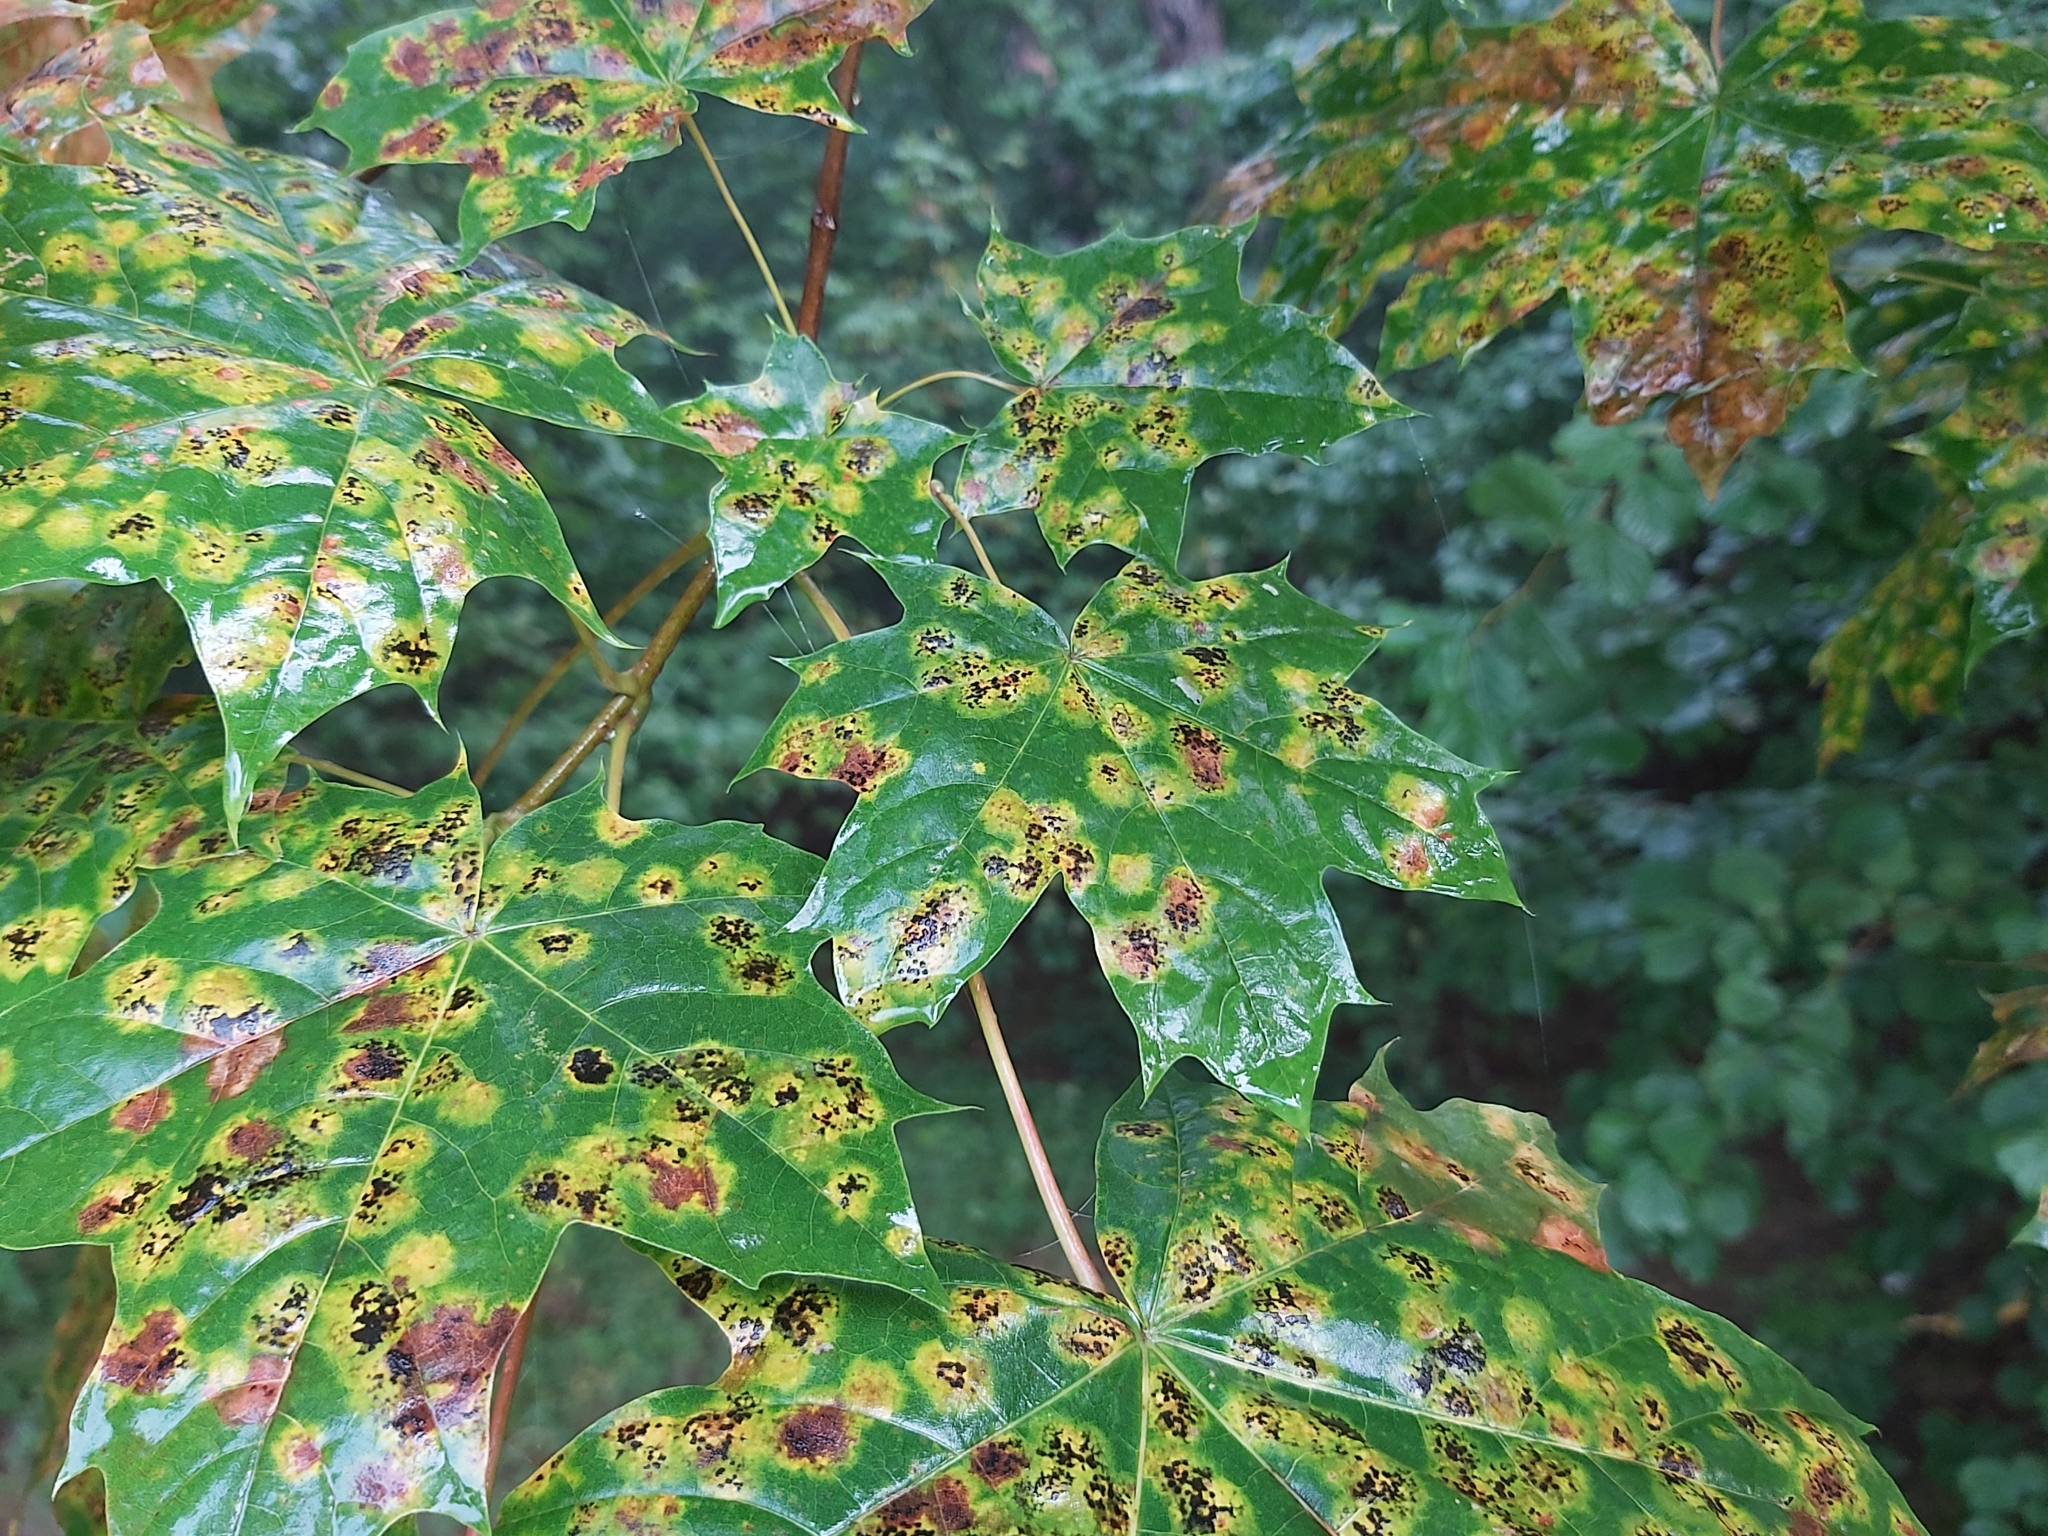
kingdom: Fungi
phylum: Ascomycota
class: Leotiomycetes
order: Rhytismatales
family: Rhytismataceae
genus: Rhytisma
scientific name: Rhytisma acerinum
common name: European tar spot
